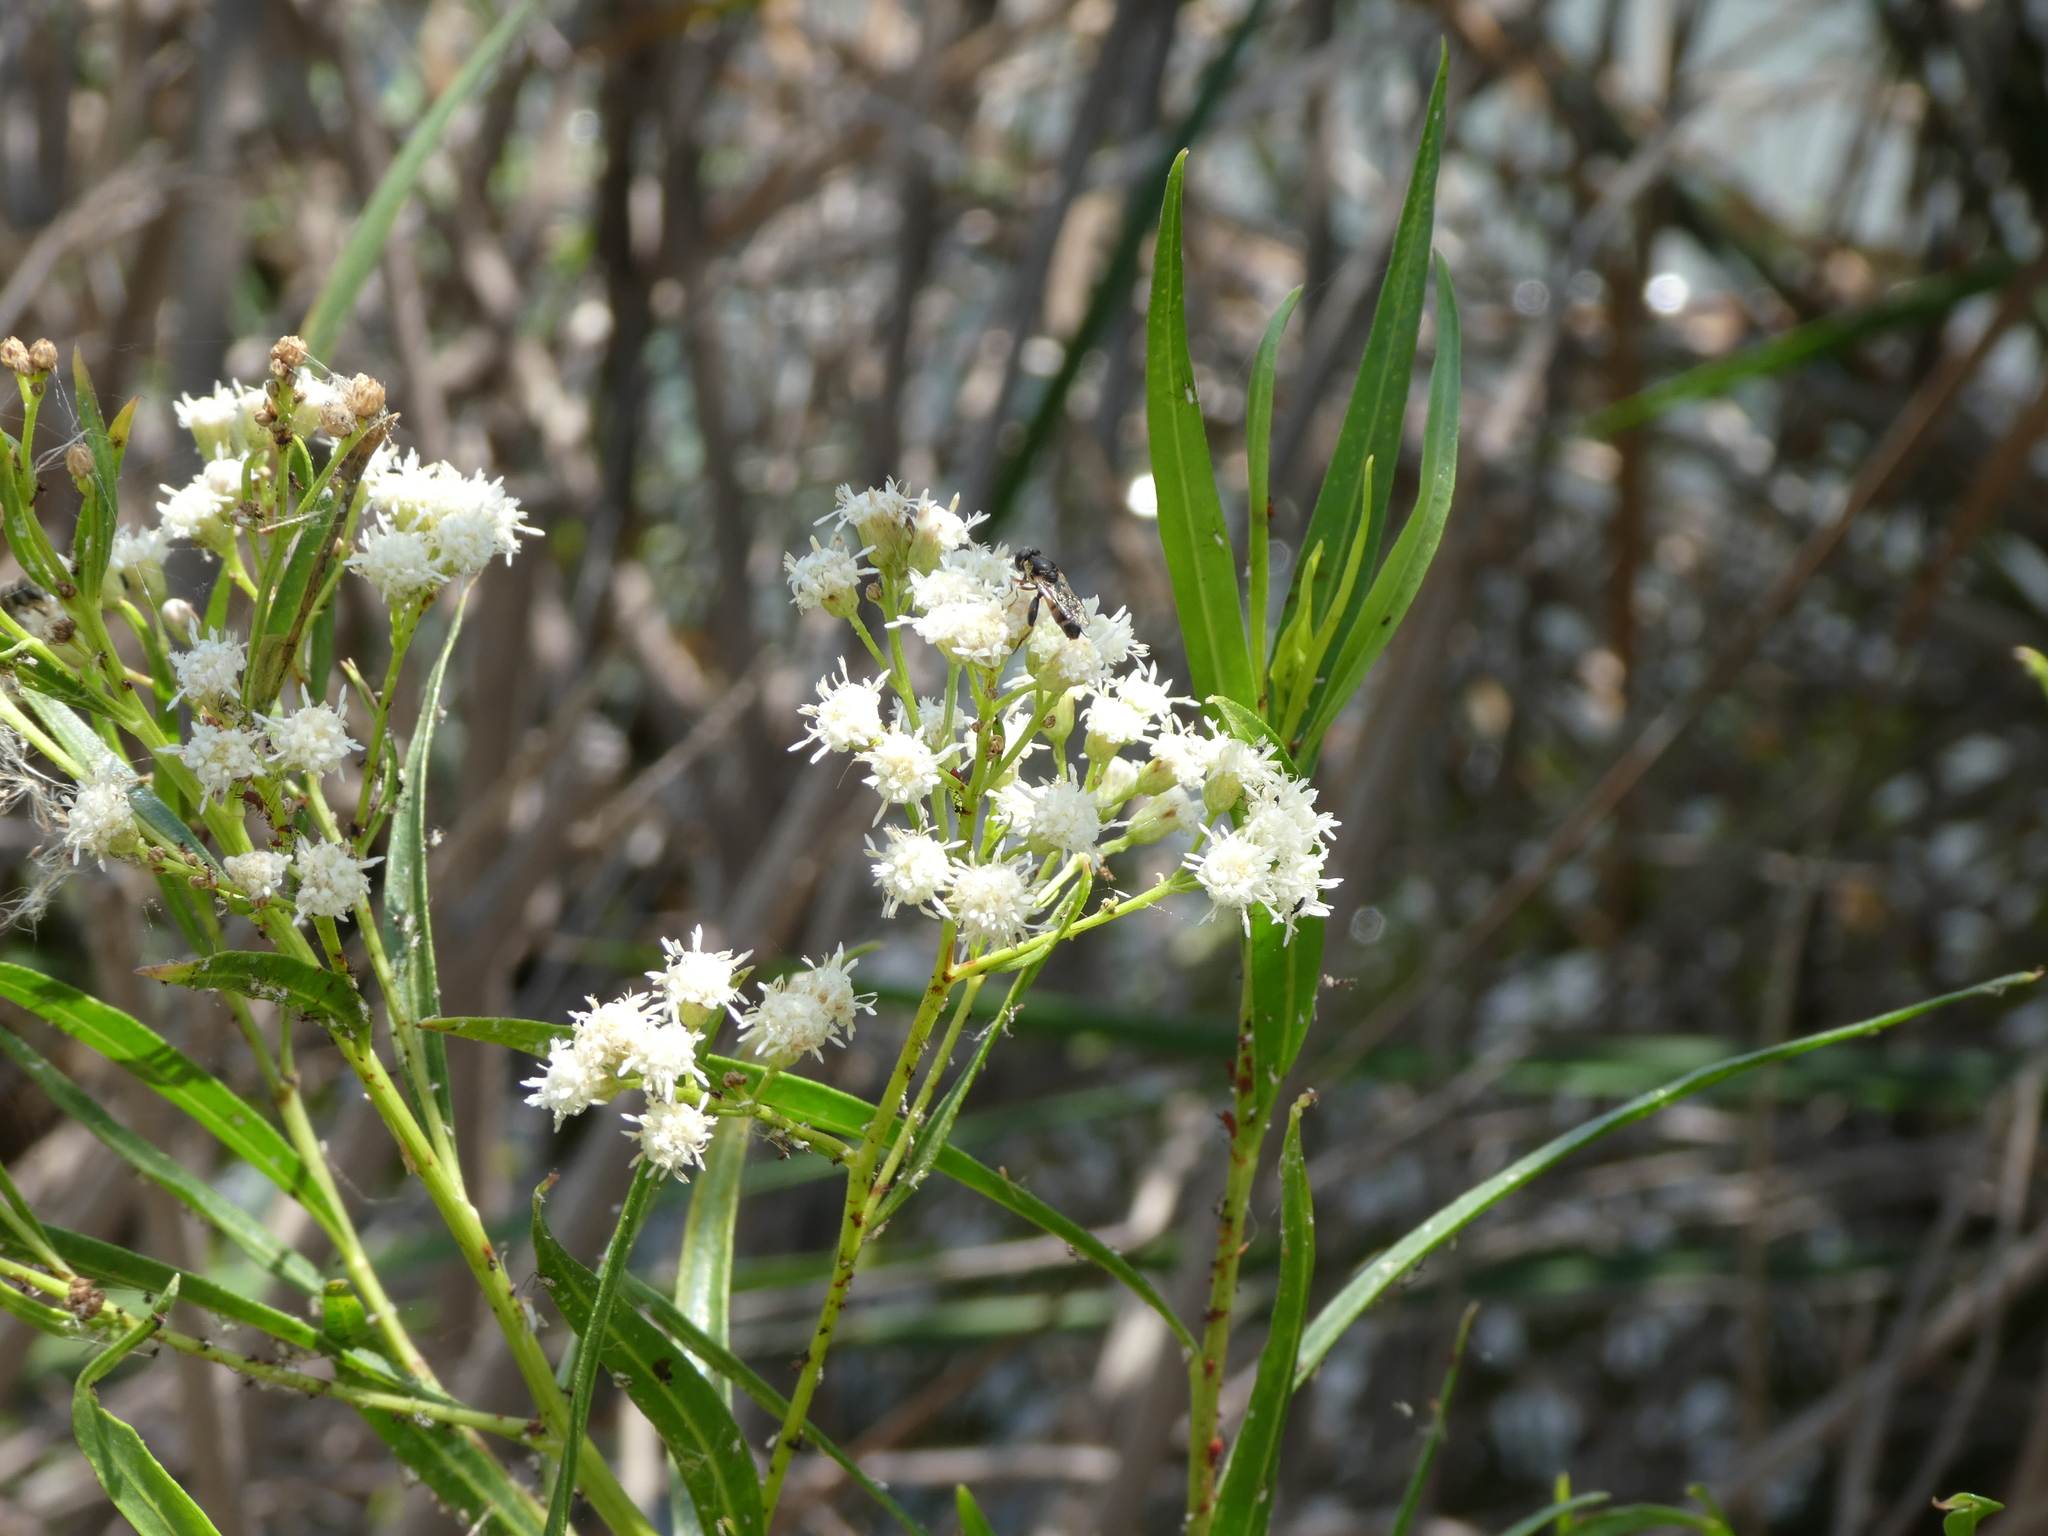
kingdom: Animalia
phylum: Arthropoda
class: Insecta
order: Diptera
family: Syrphidae
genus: Syritta
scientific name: Syritta pipiens
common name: Hover fly
